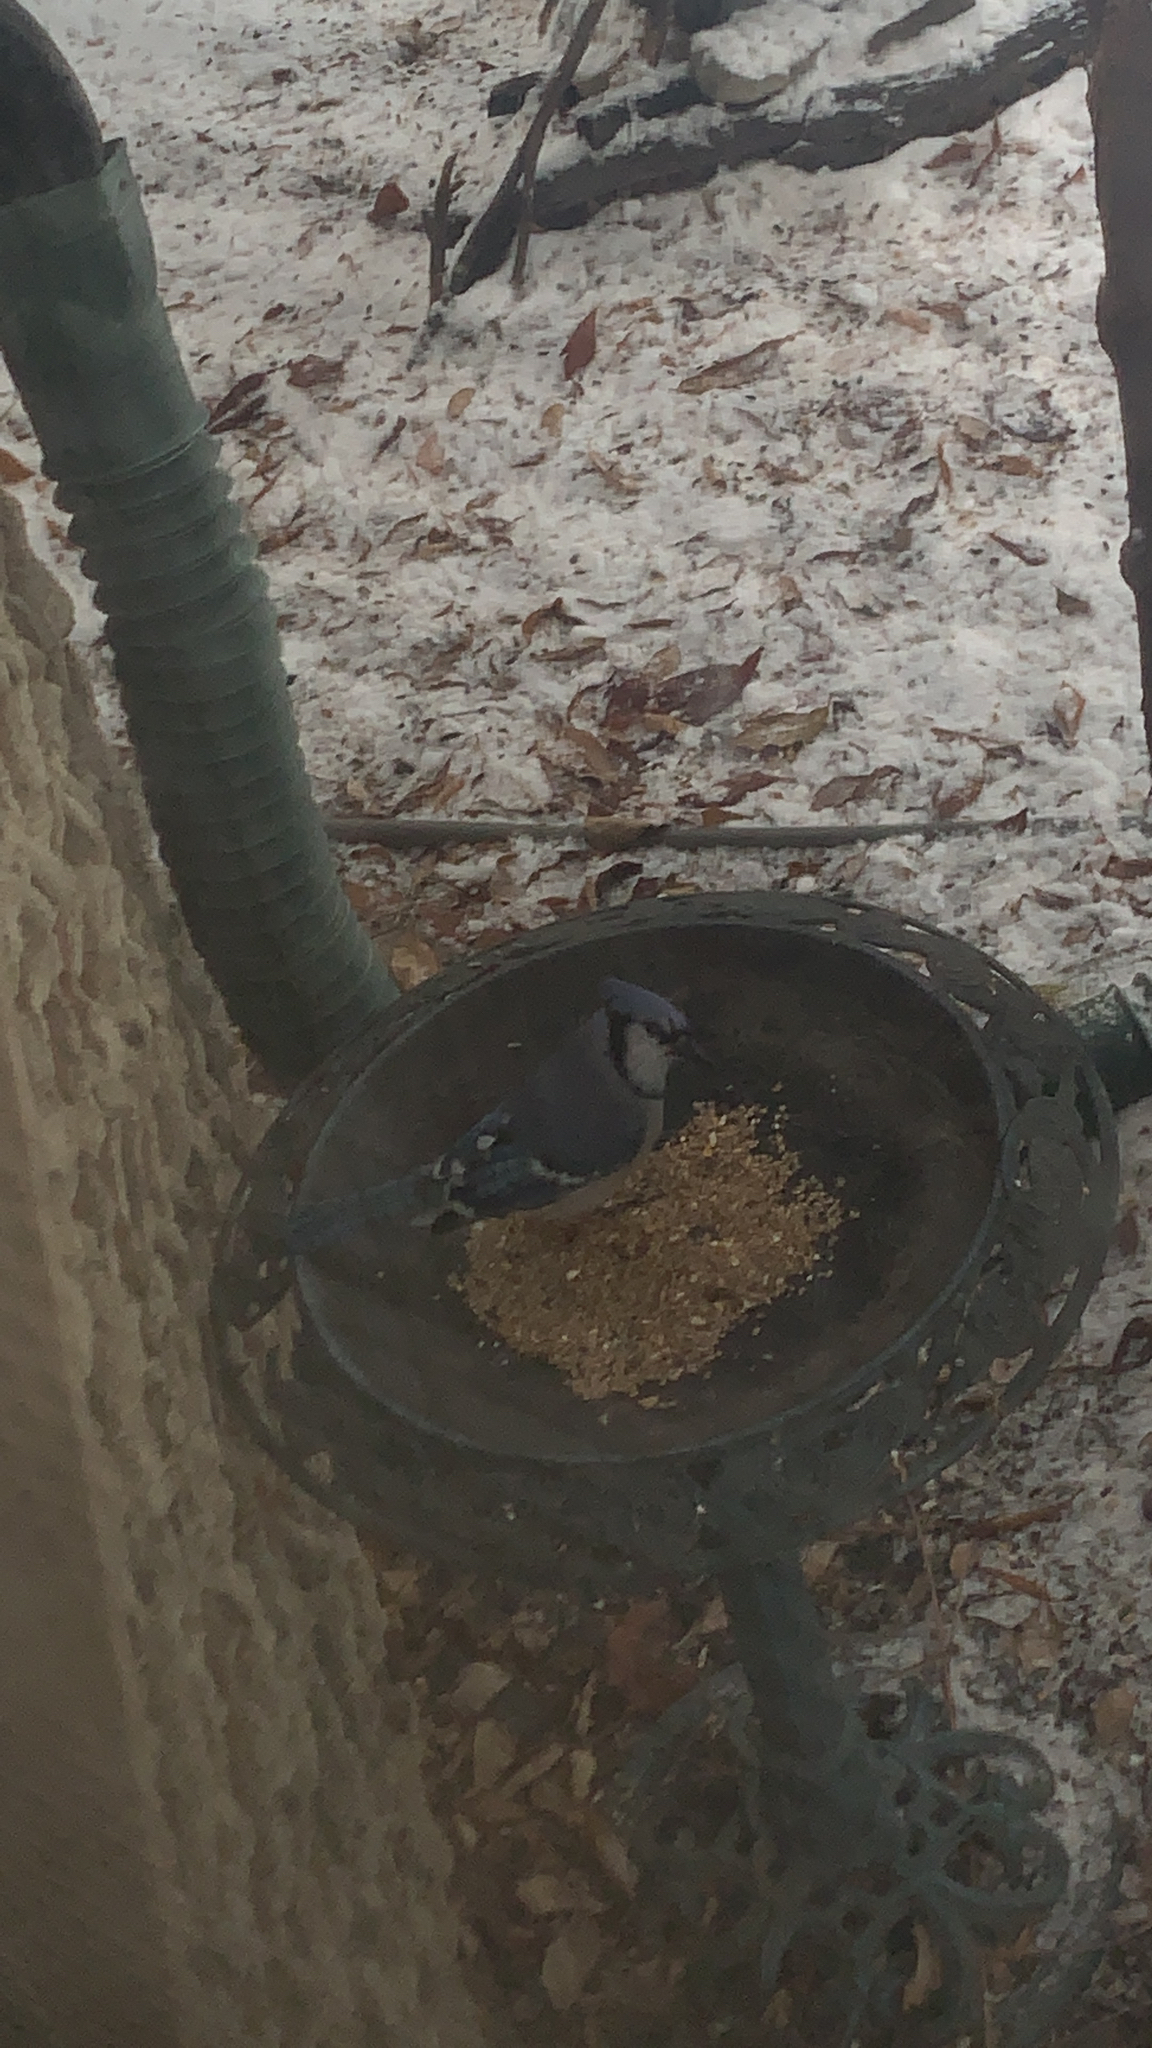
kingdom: Animalia
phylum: Chordata
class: Aves
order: Passeriformes
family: Corvidae
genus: Cyanocitta
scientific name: Cyanocitta cristata
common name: Blue jay
